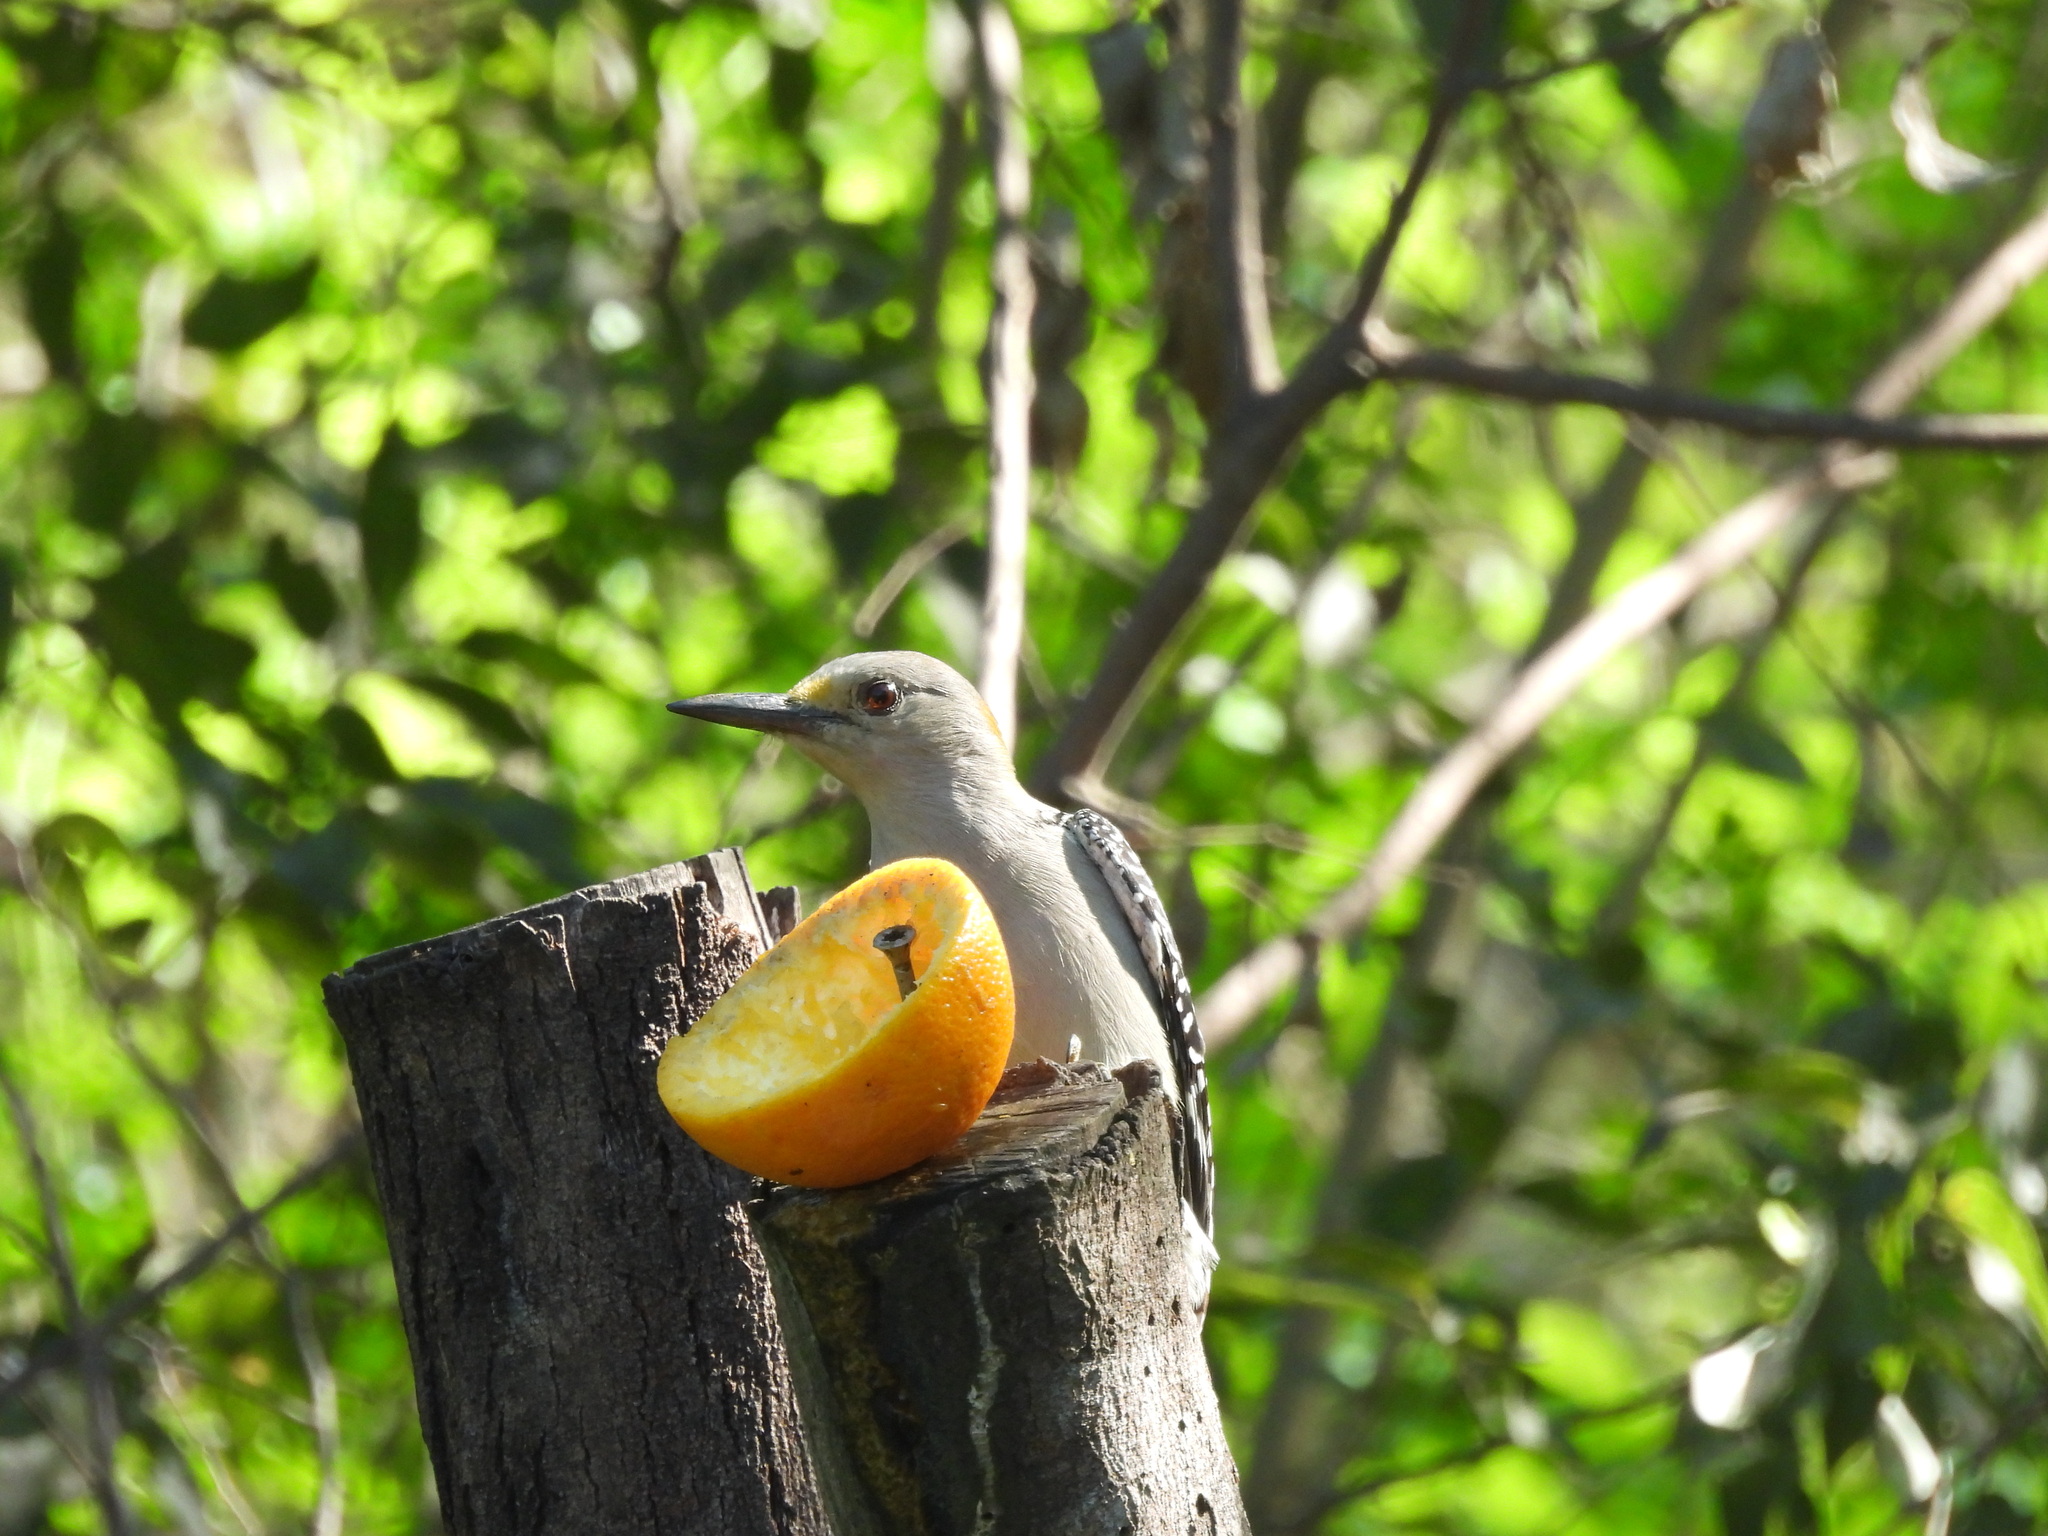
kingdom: Animalia
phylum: Chordata
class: Aves
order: Piciformes
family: Picidae
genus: Melanerpes
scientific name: Melanerpes aurifrons
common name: Golden-fronted woodpecker
